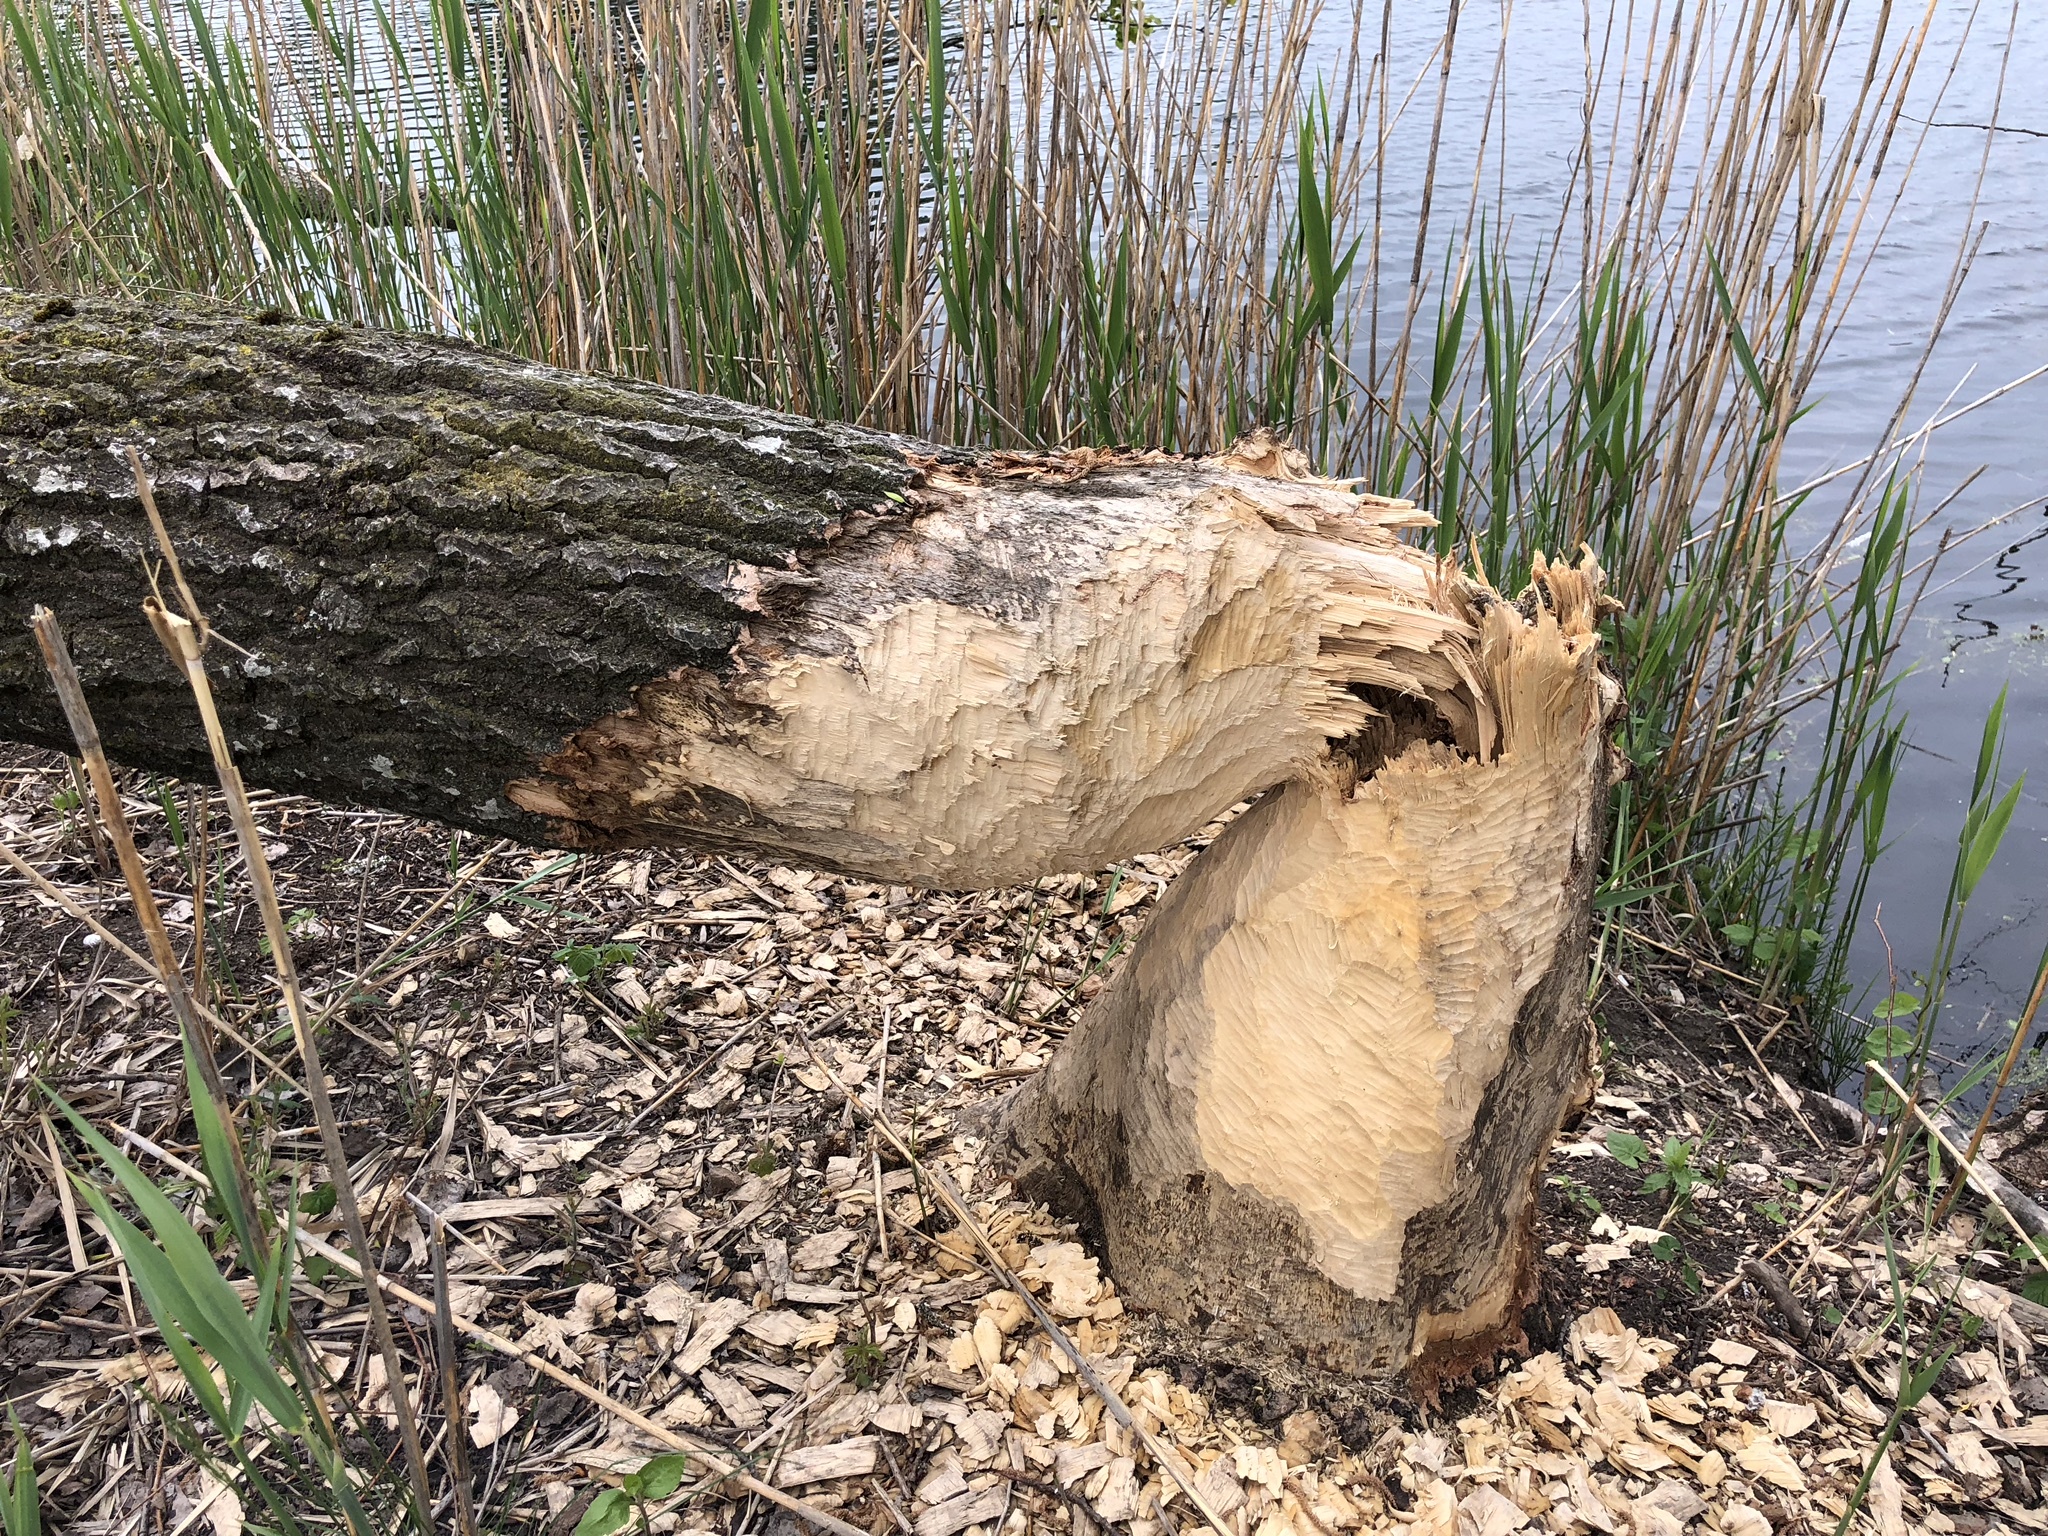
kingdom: Animalia
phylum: Chordata
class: Mammalia
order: Rodentia
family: Castoridae
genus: Castor
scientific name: Castor fiber
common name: Eurasian beaver
